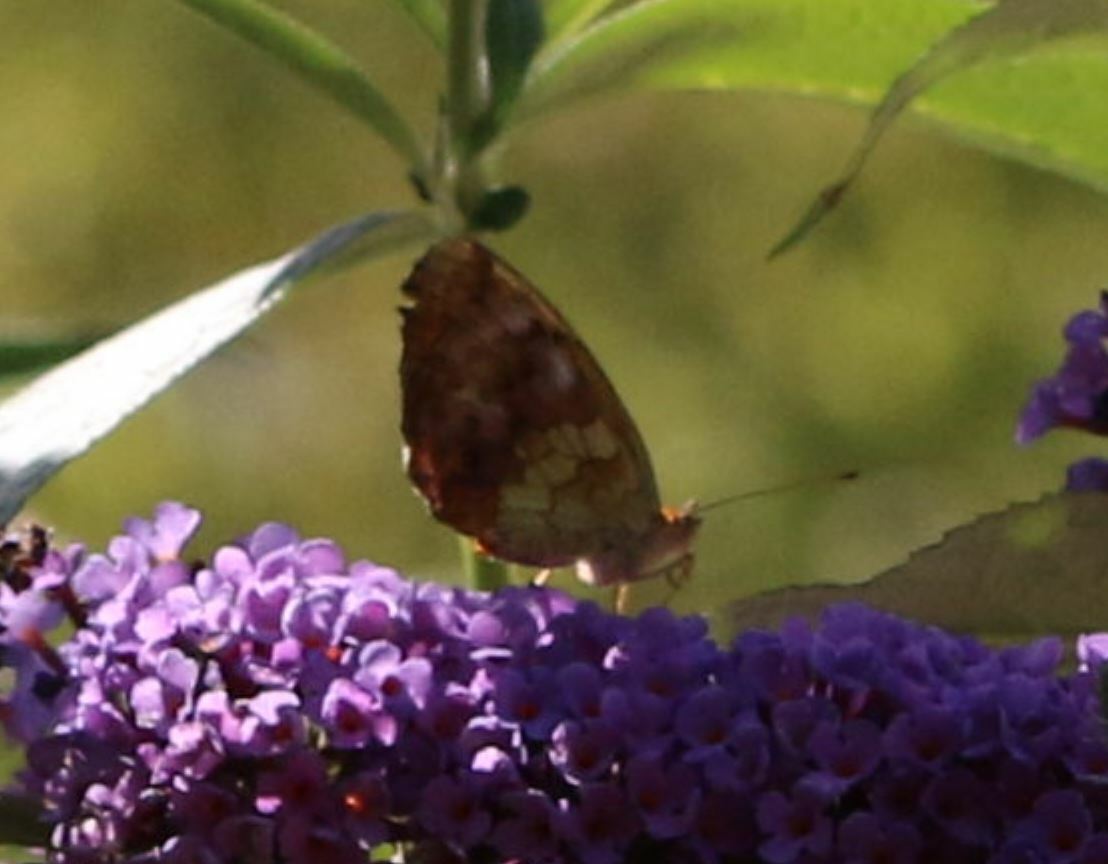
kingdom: Animalia
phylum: Arthropoda
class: Insecta
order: Lepidoptera
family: Nymphalidae
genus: Brenthis
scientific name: Brenthis daphne
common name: Marbled fritillary
